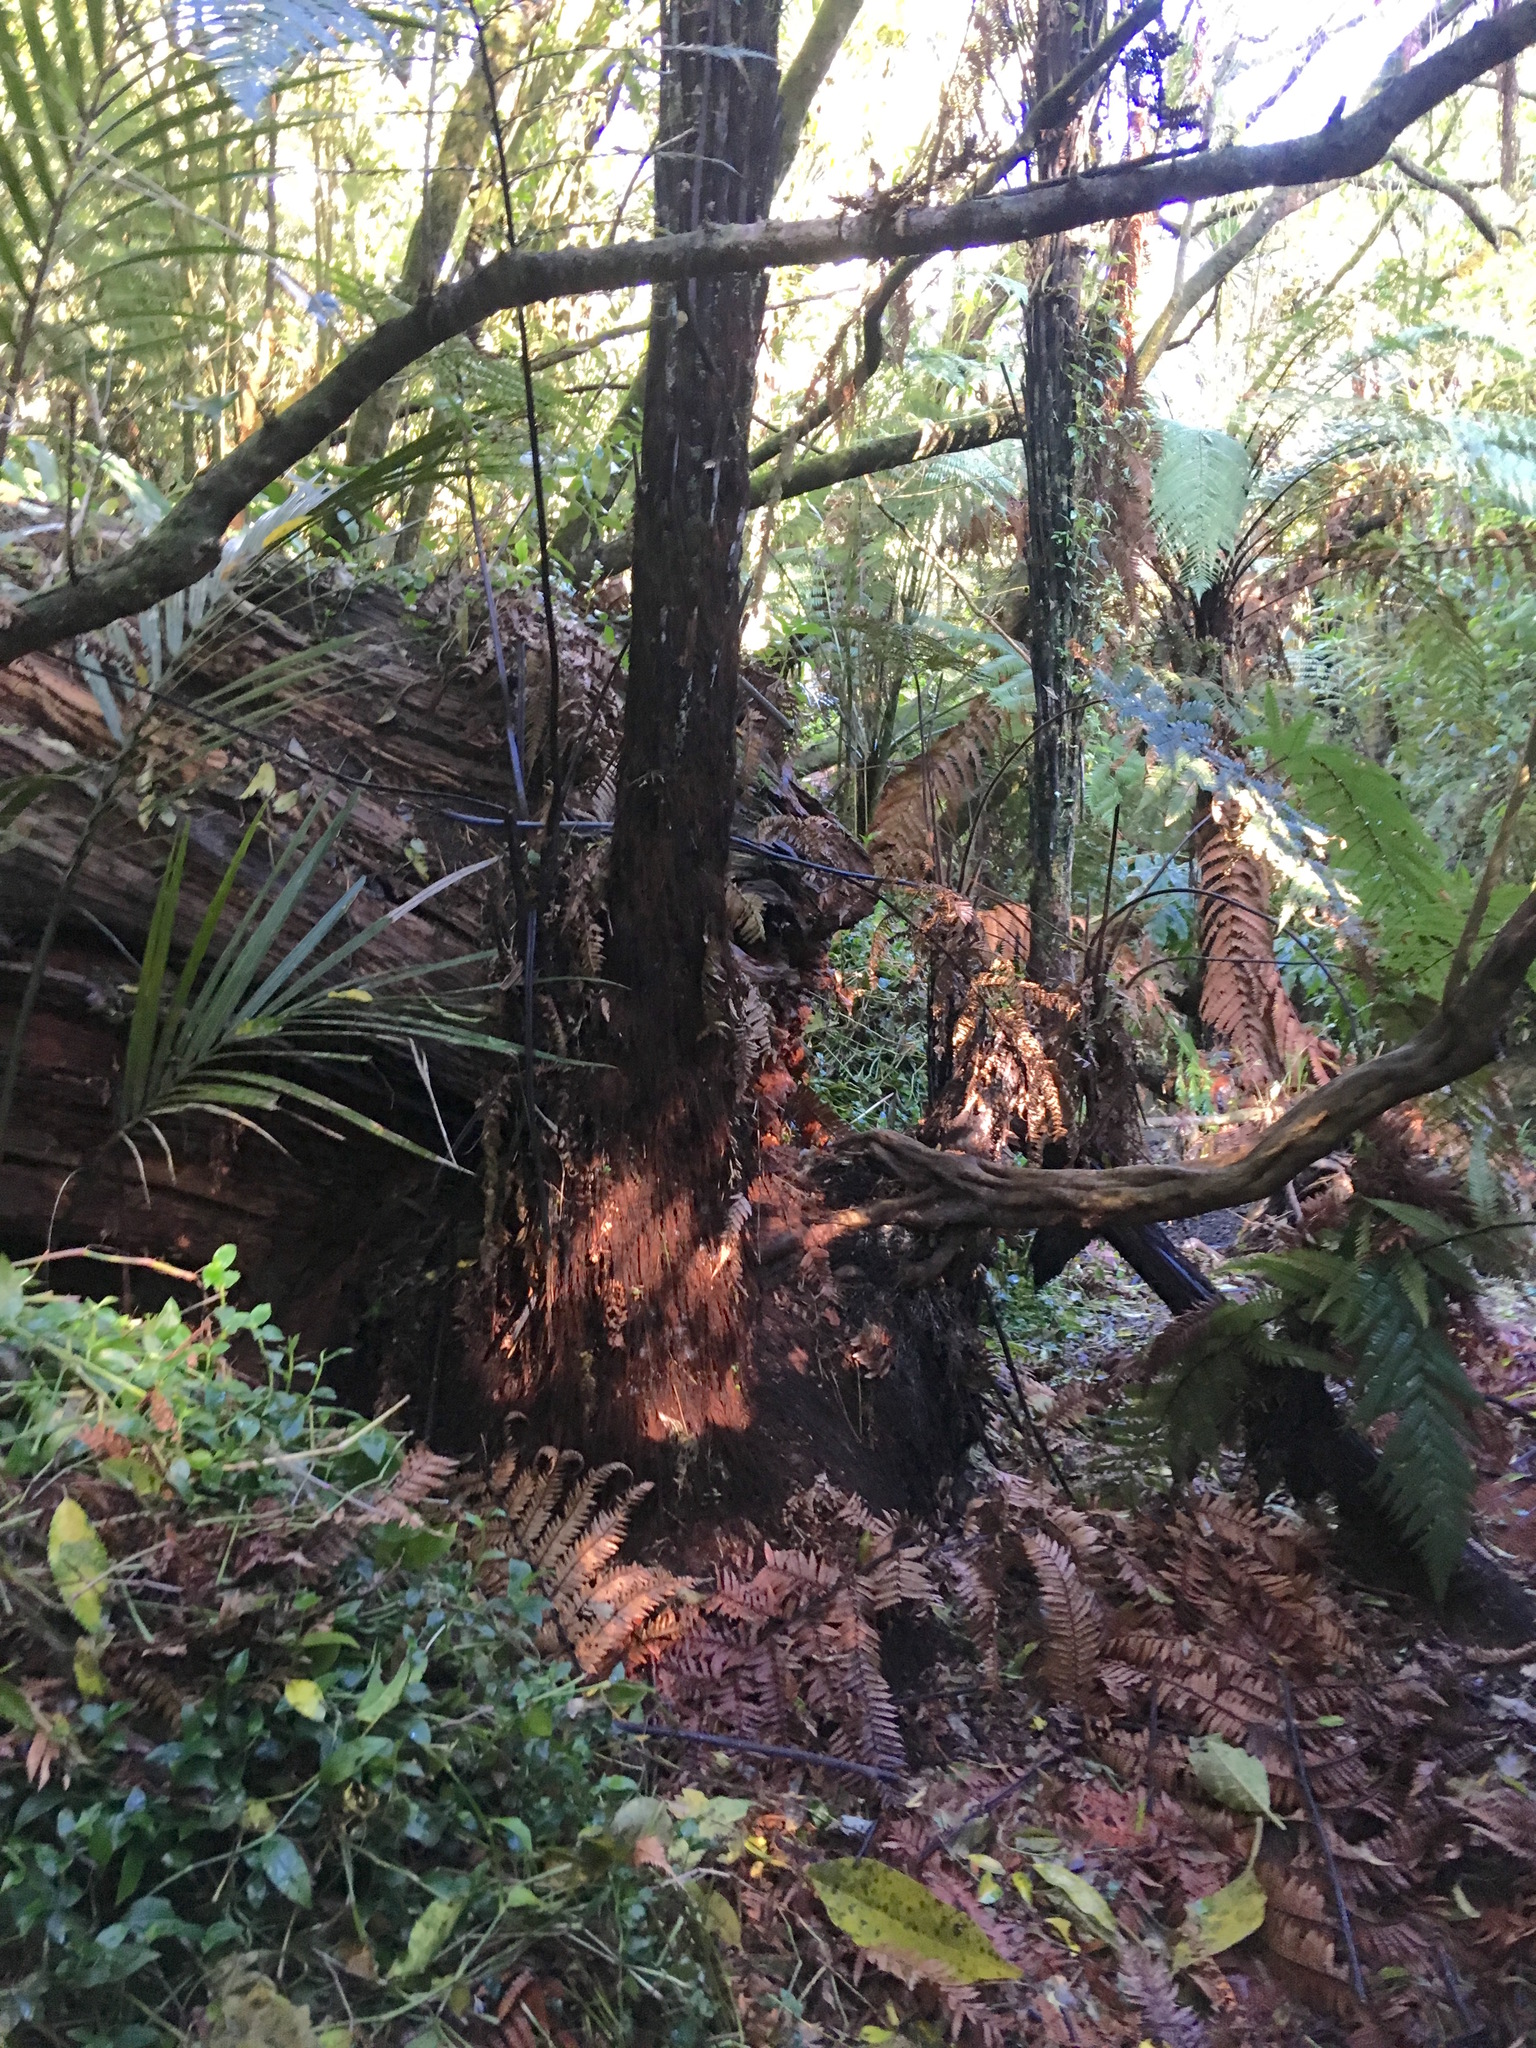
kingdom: Plantae
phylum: Tracheophyta
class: Liliopsida
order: Arecales
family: Arecaceae
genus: Rhopalostylis
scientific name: Rhopalostylis sapida
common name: Feather-duster palm
